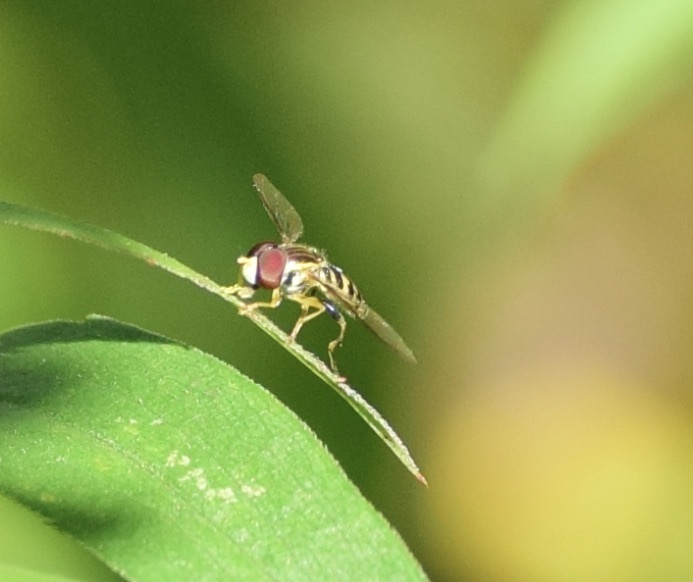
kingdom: Animalia
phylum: Arthropoda
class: Insecta
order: Diptera
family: Syrphidae
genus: Toxomerus
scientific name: Toxomerus geminatus
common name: Eastern calligrapher
